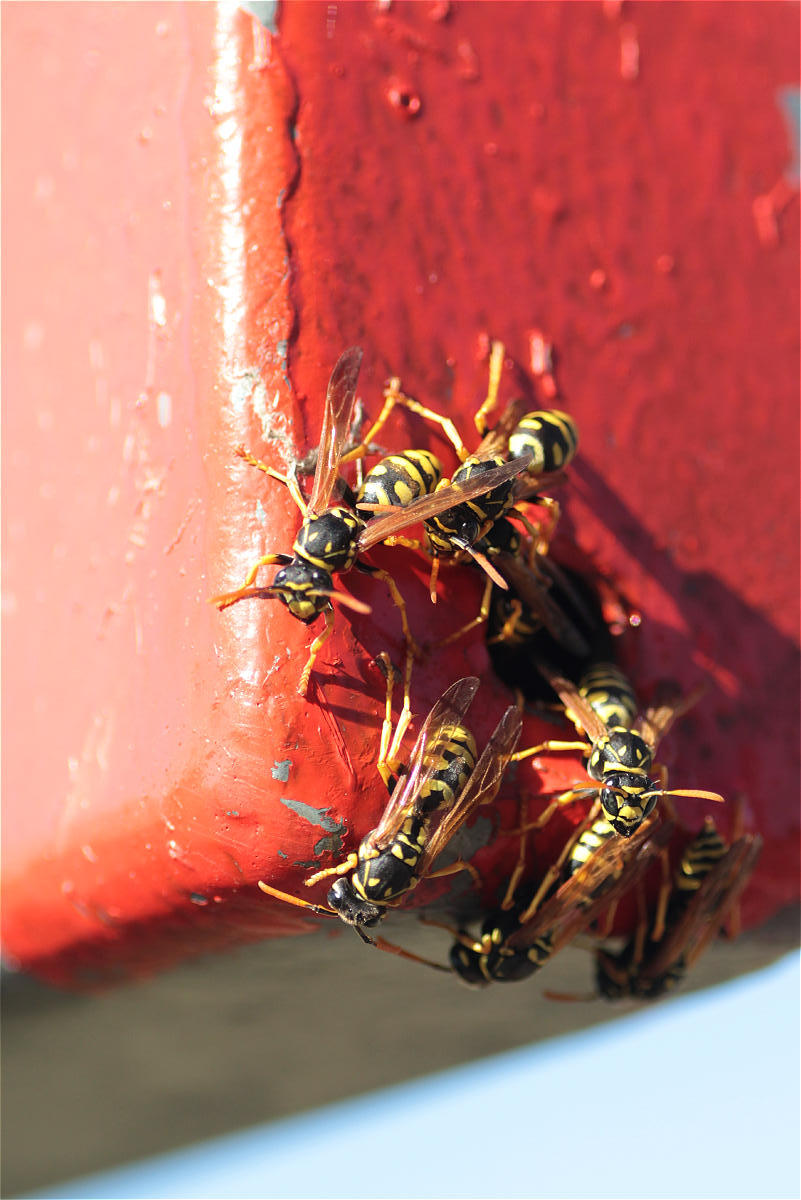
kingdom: Animalia
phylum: Arthropoda
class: Insecta
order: Hymenoptera
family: Eumenidae
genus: Polistes
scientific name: Polistes dominula
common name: Paper wasp
